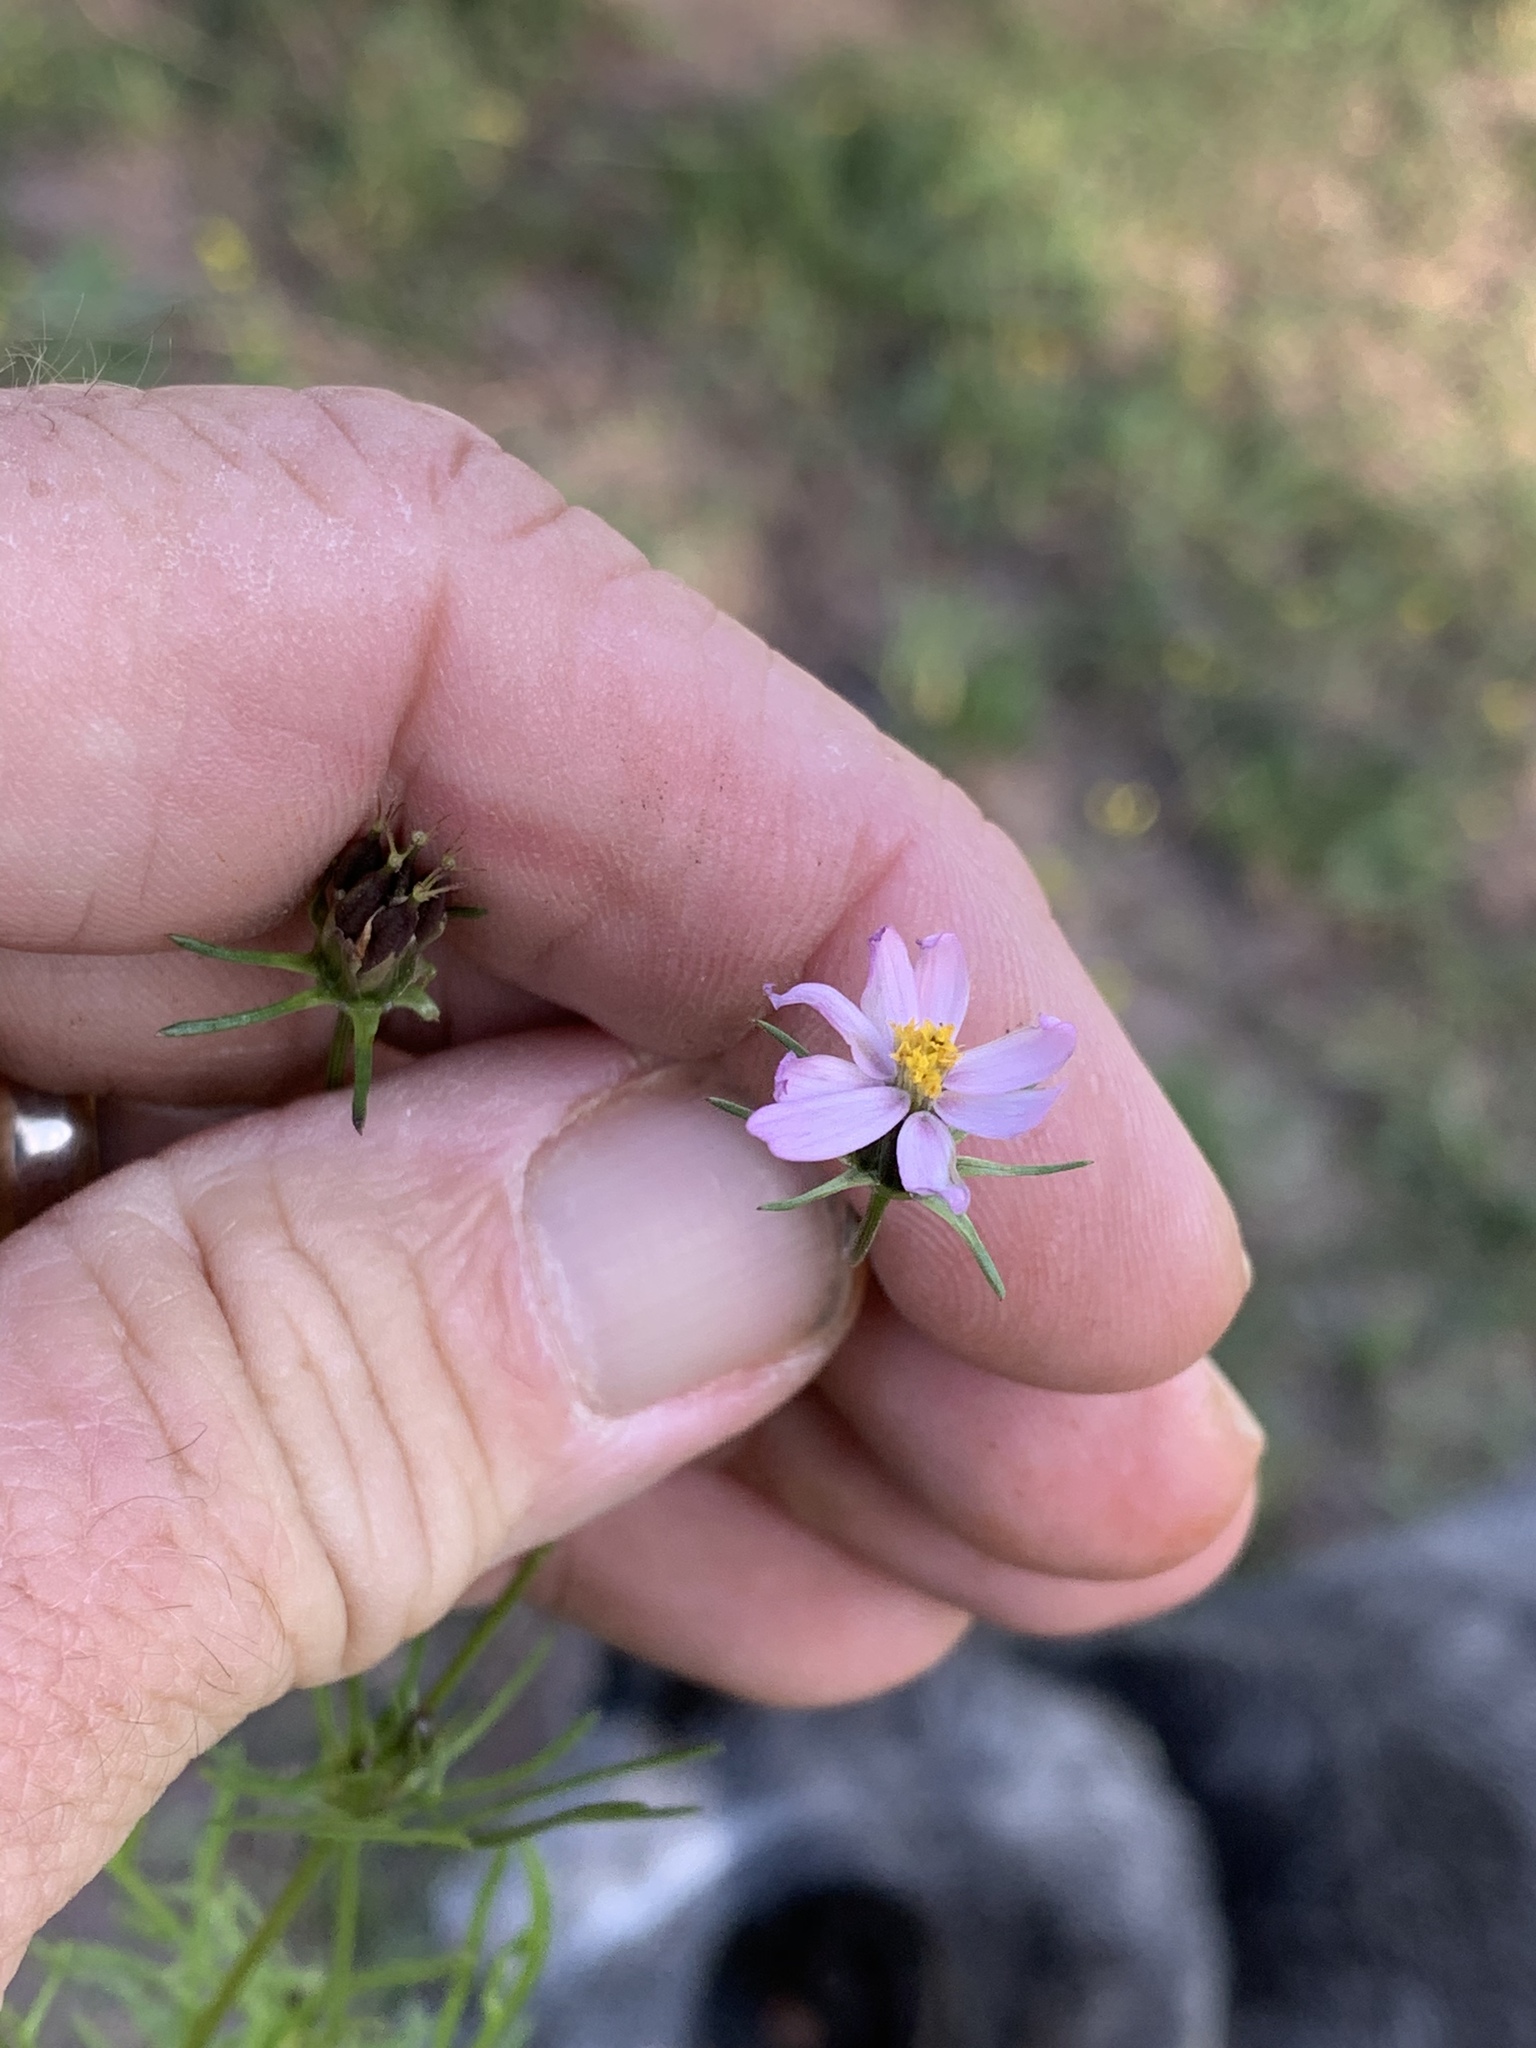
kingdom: Plantae
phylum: Tracheophyta
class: Magnoliopsida
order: Asterales
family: Asteraceae
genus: Cosmos
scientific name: Cosmos parviflorus
